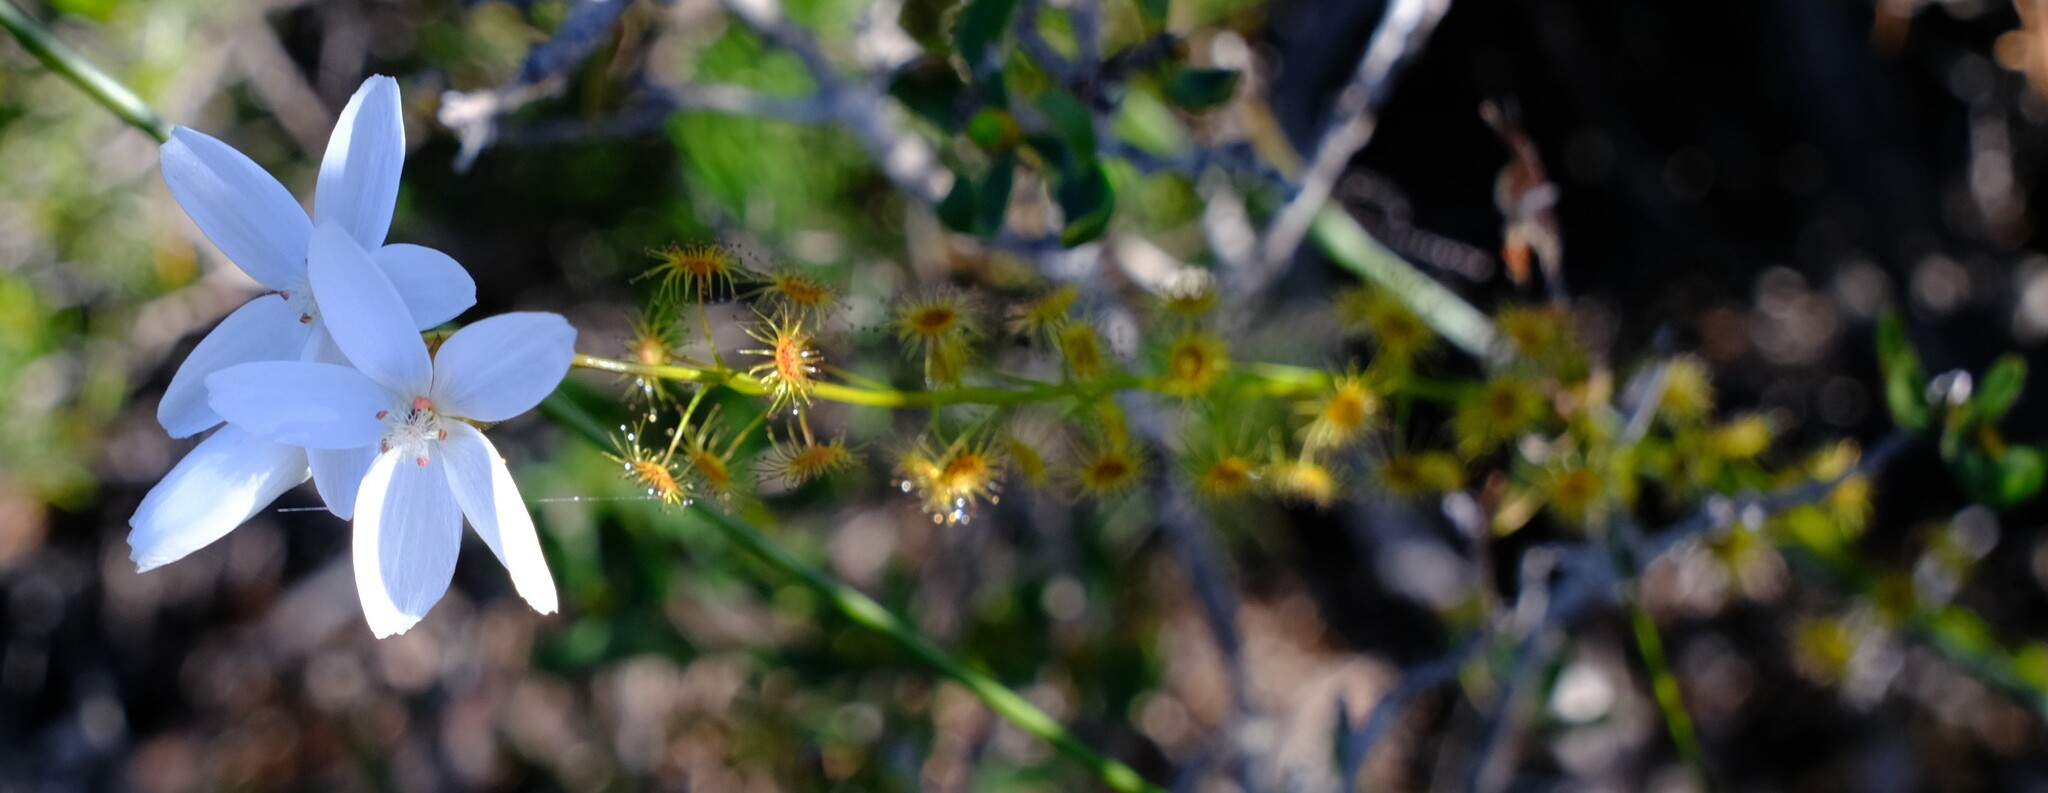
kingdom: Plantae
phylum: Tracheophyta
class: Magnoliopsida
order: Caryophyllales
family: Droseraceae
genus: Drosera
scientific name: Drosera marchantii
